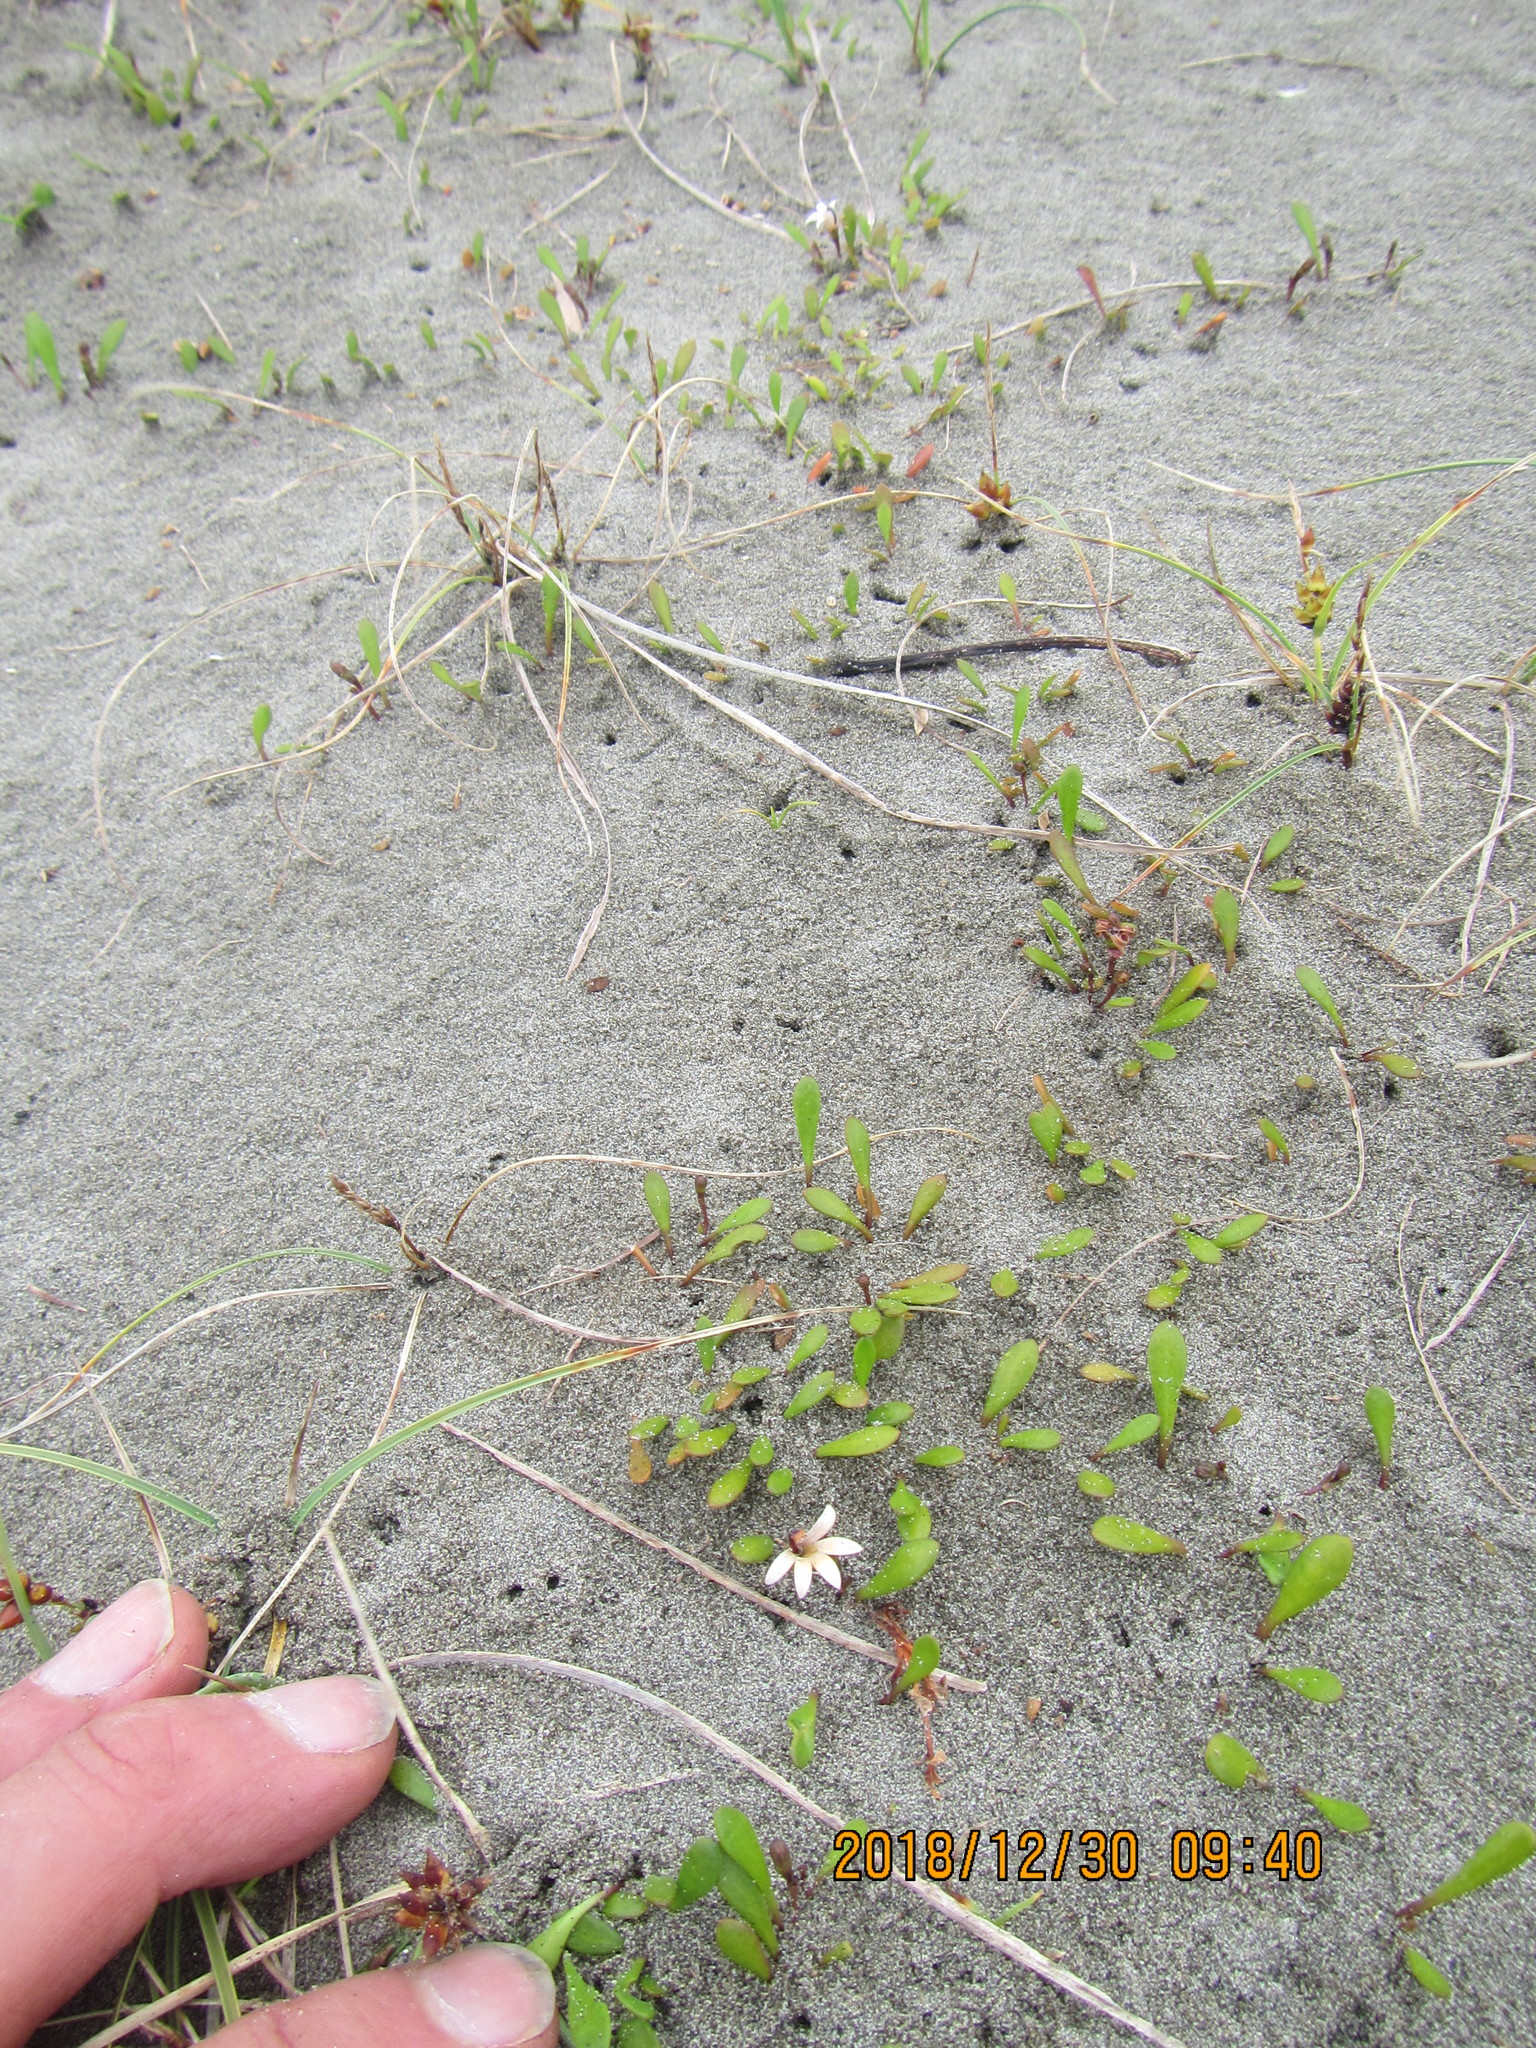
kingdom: Plantae
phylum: Tracheophyta
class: Magnoliopsida
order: Asterales
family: Goodeniaceae
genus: Goodenia
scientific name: Goodenia radicans
